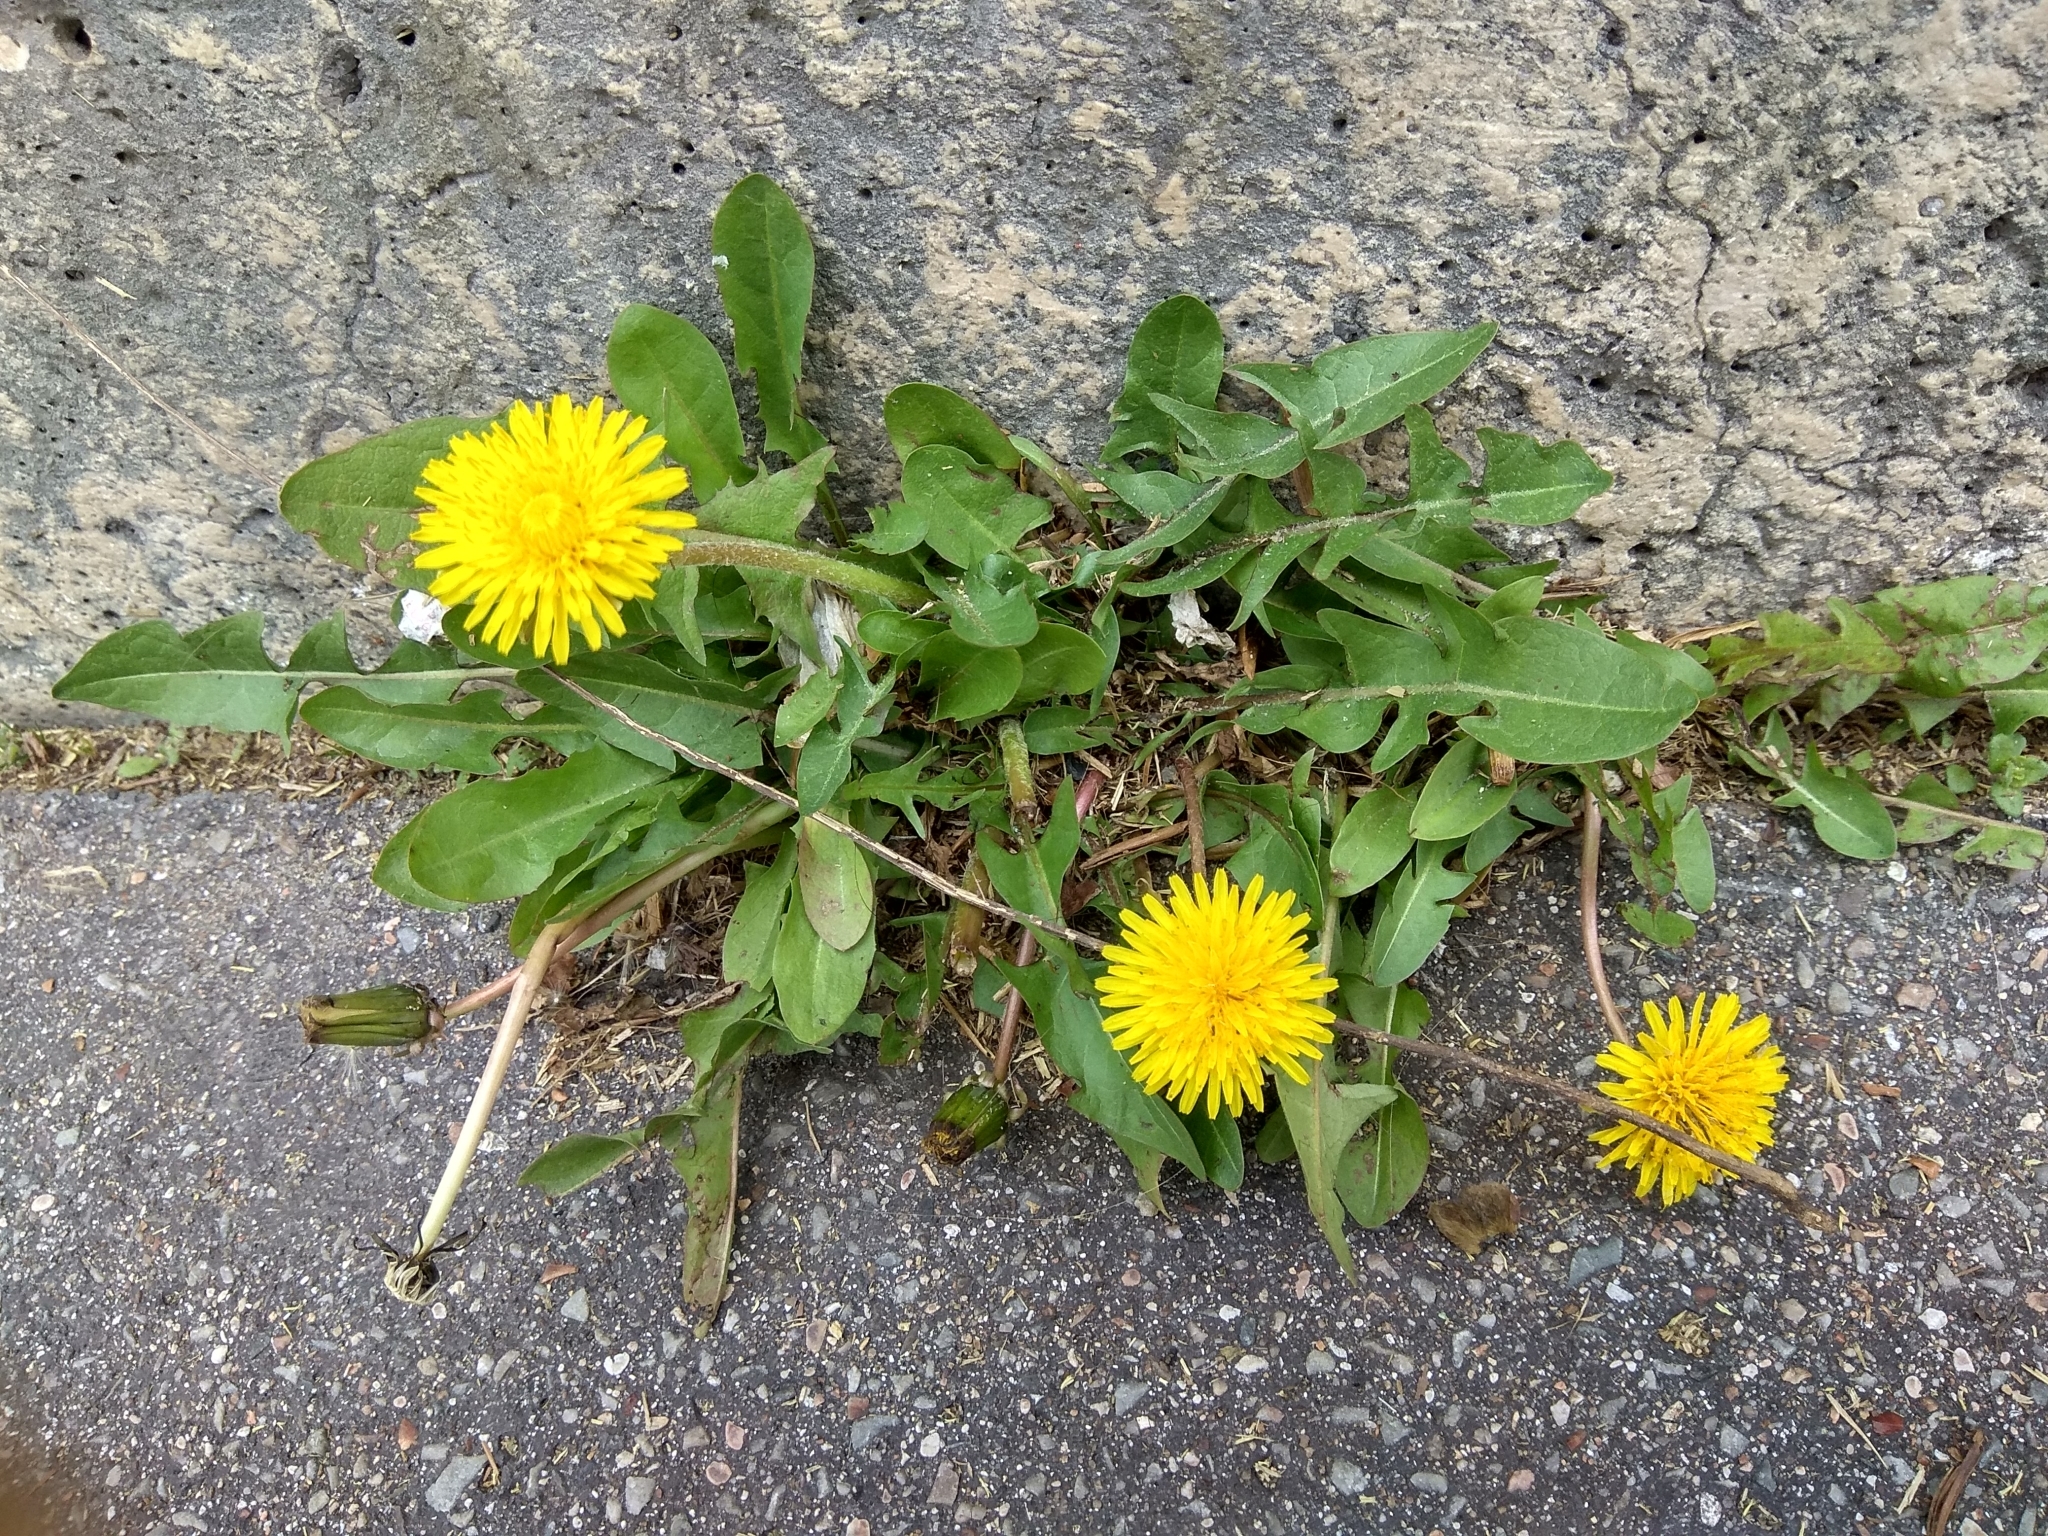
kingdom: Plantae
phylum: Tracheophyta
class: Magnoliopsida
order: Asterales
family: Asteraceae
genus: Taraxacum
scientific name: Taraxacum officinale
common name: Common dandelion
